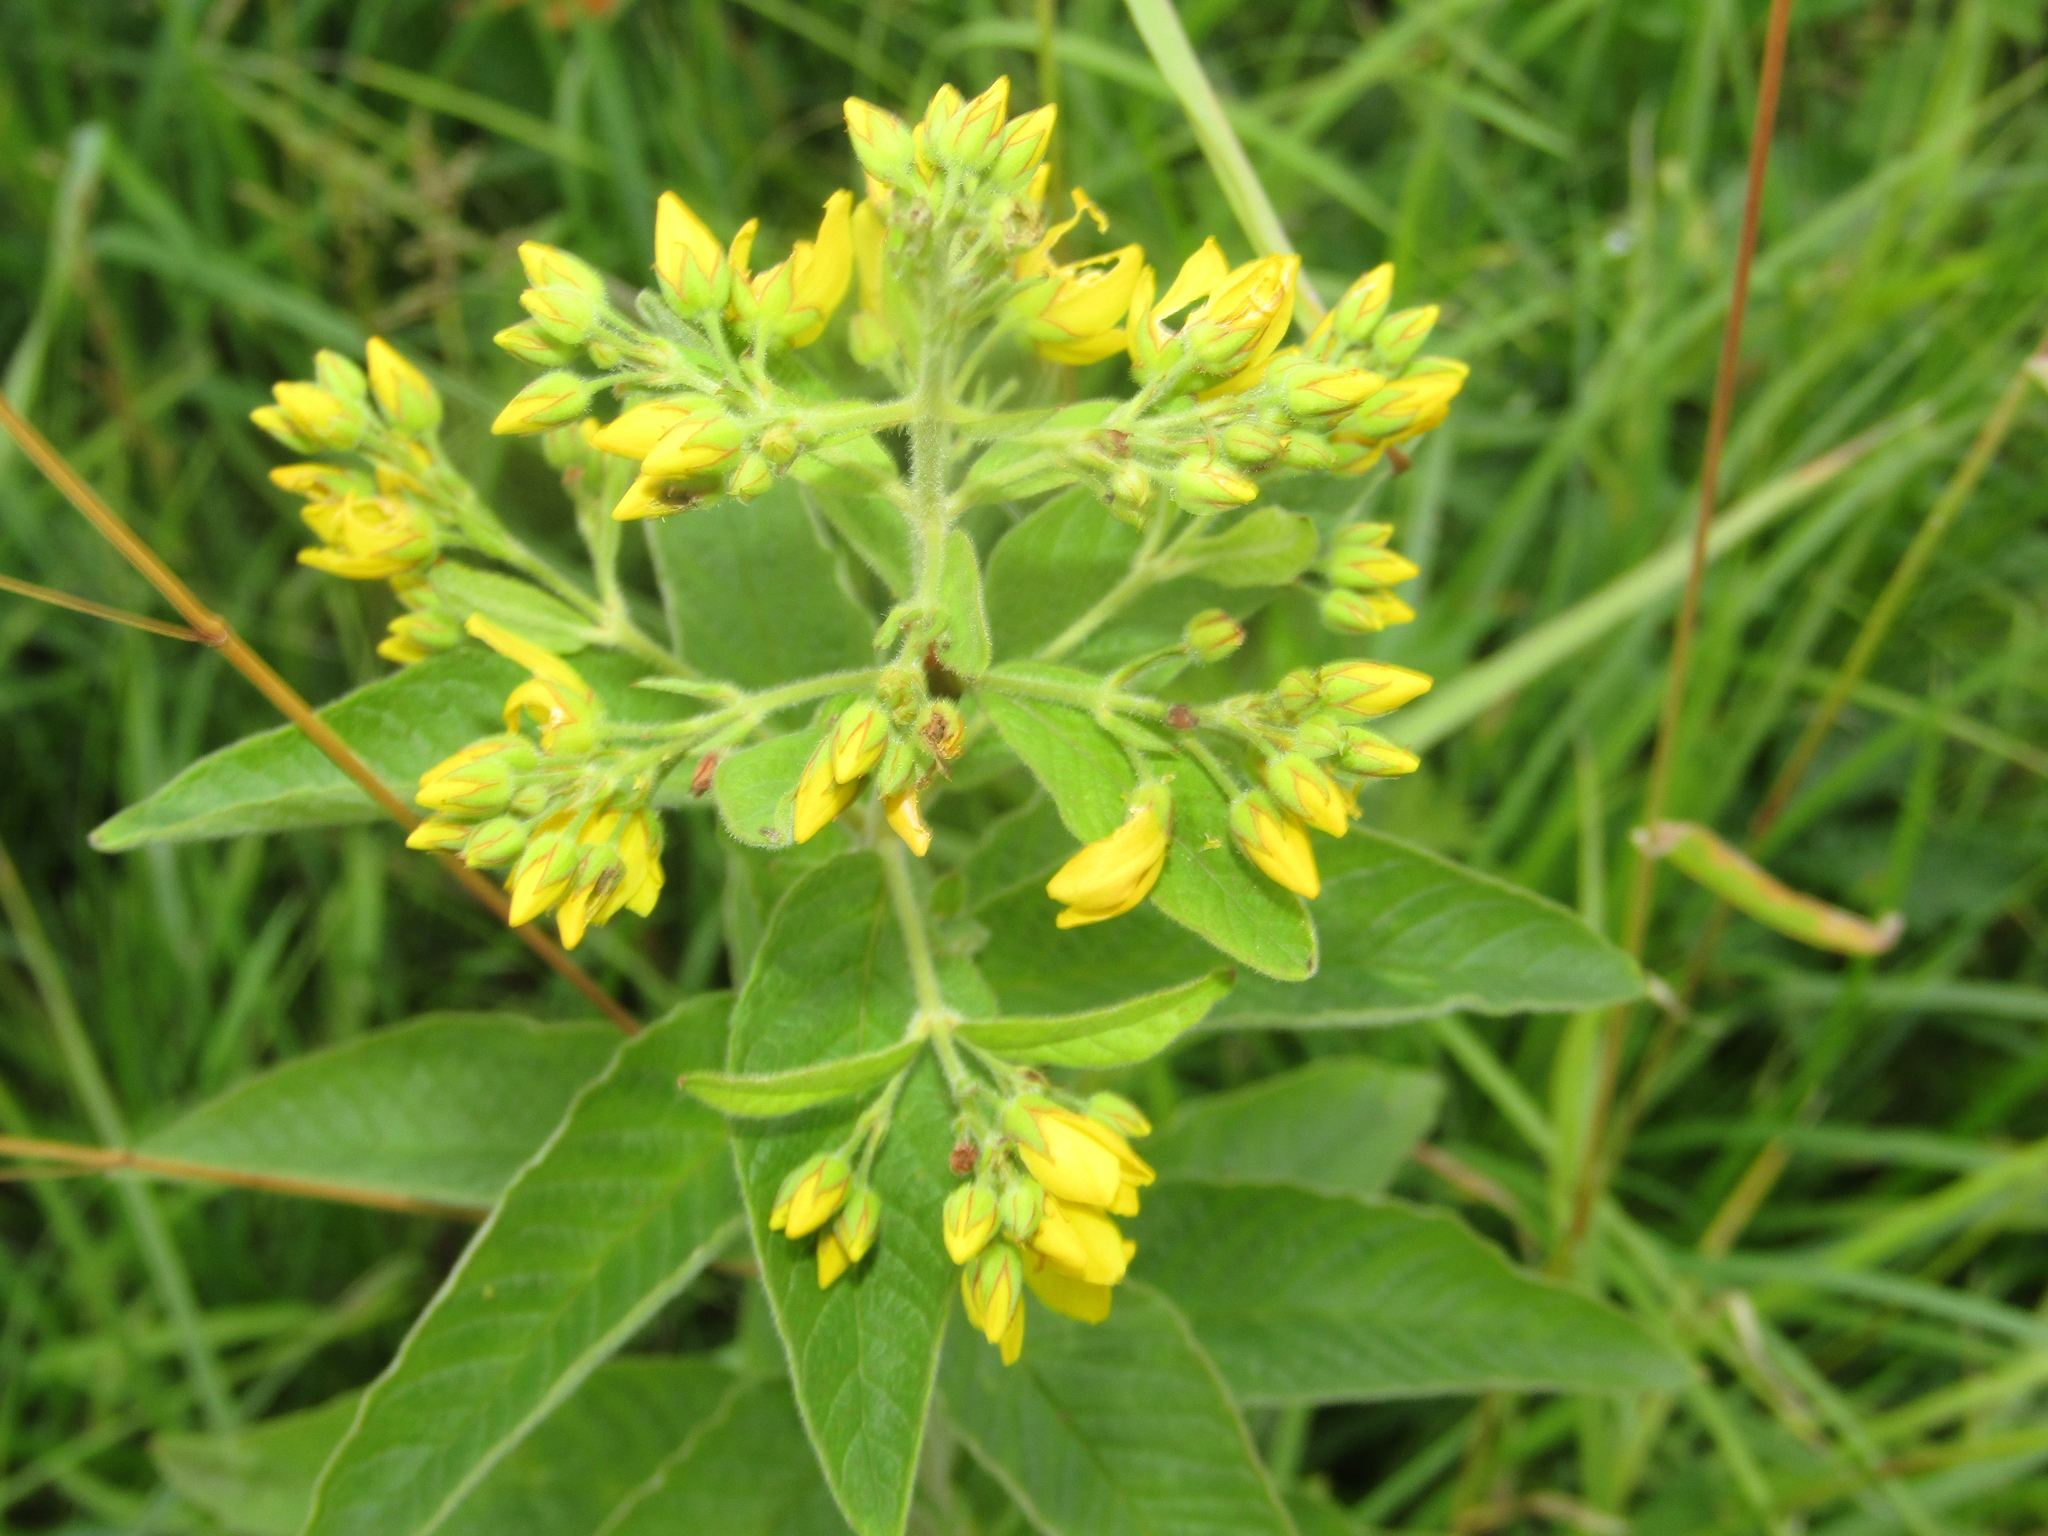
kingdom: Plantae
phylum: Tracheophyta
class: Magnoliopsida
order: Ericales
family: Primulaceae
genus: Lysimachia
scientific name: Lysimachia vulgaris
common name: Yellow loosestrife
